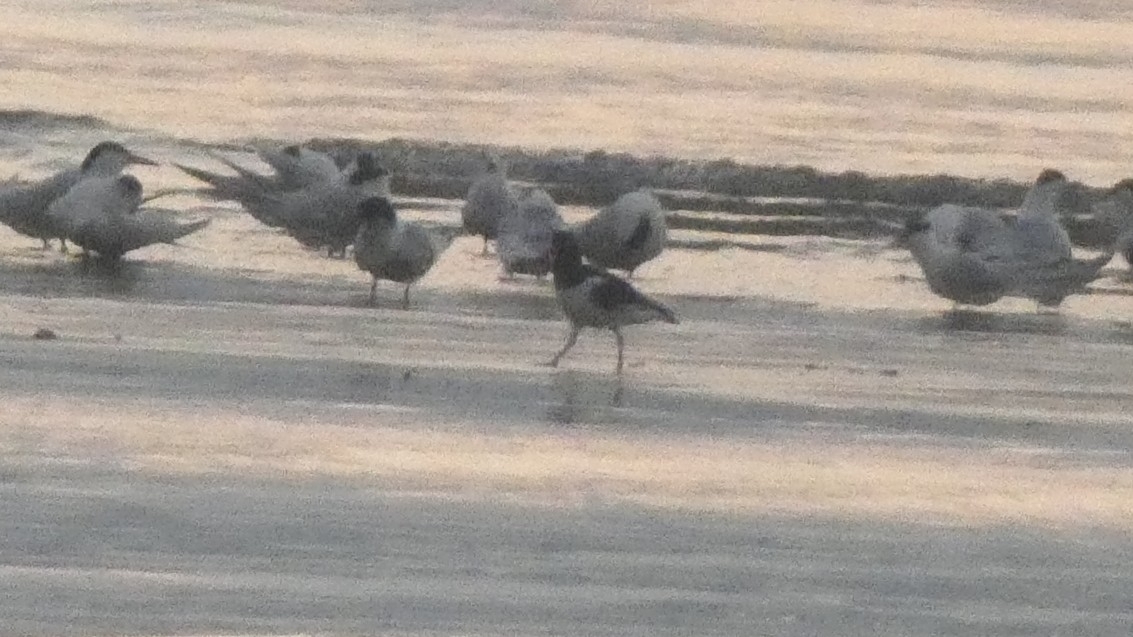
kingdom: Animalia
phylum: Chordata
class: Aves
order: Charadriiformes
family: Haematopodidae
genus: Haematopus
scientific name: Haematopus palliatus
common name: American oystercatcher
